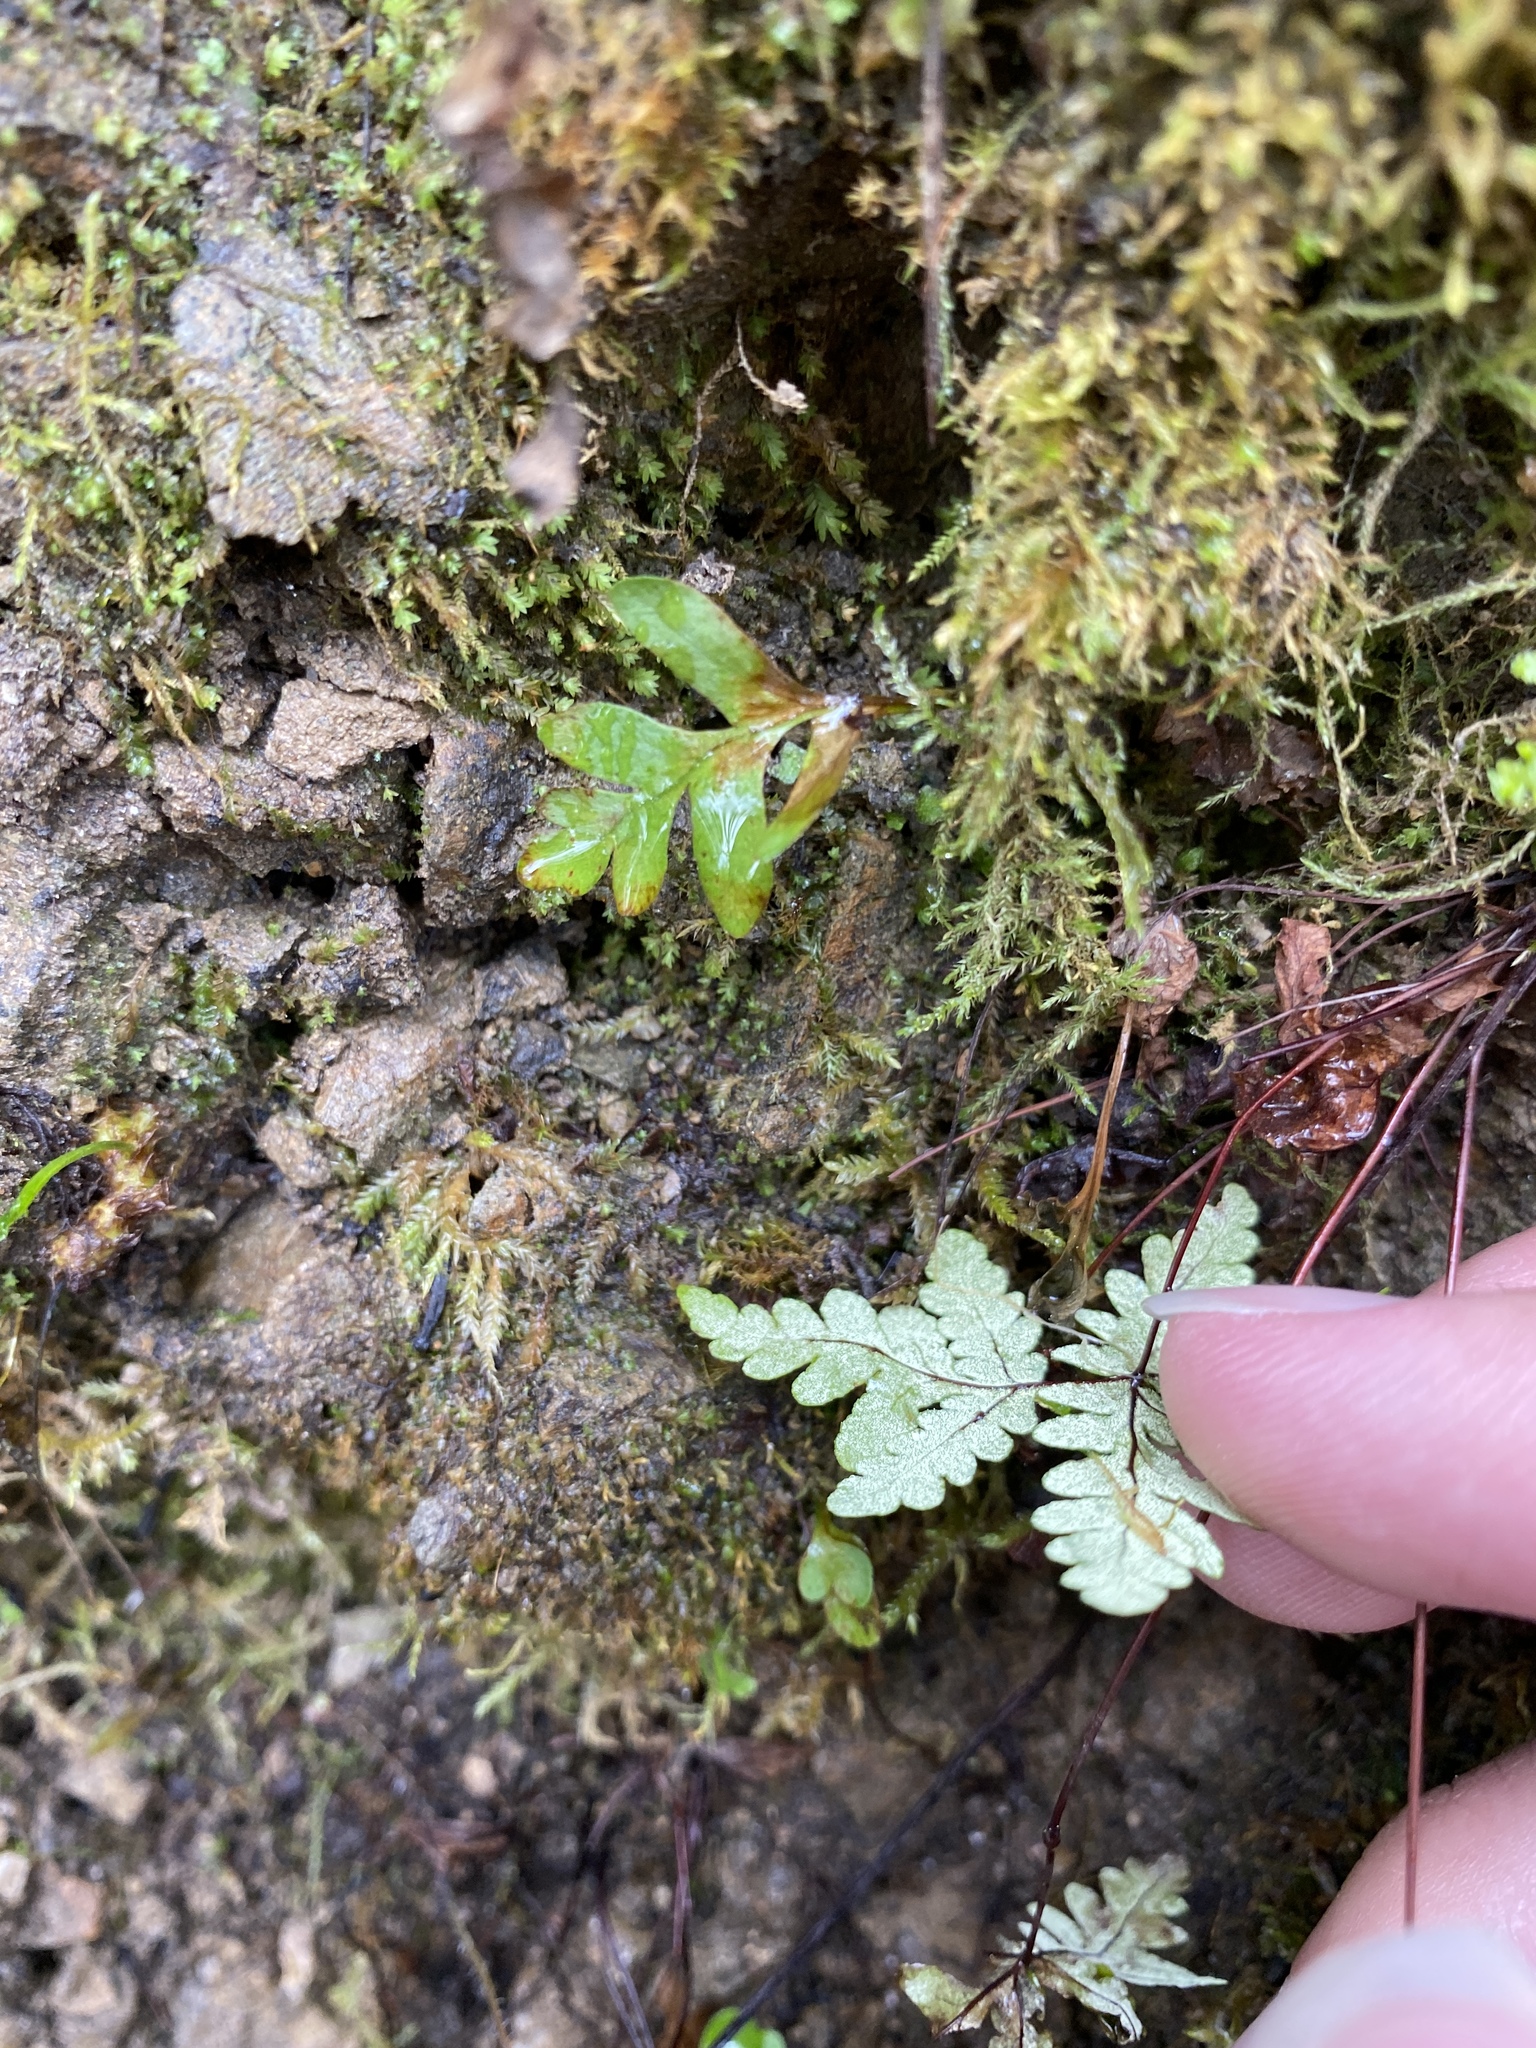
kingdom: Plantae
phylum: Tracheophyta
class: Polypodiopsida
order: Polypodiales
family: Pteridaceae
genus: Pentagramma
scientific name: Pentagramma triangularis
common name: Gold fern
